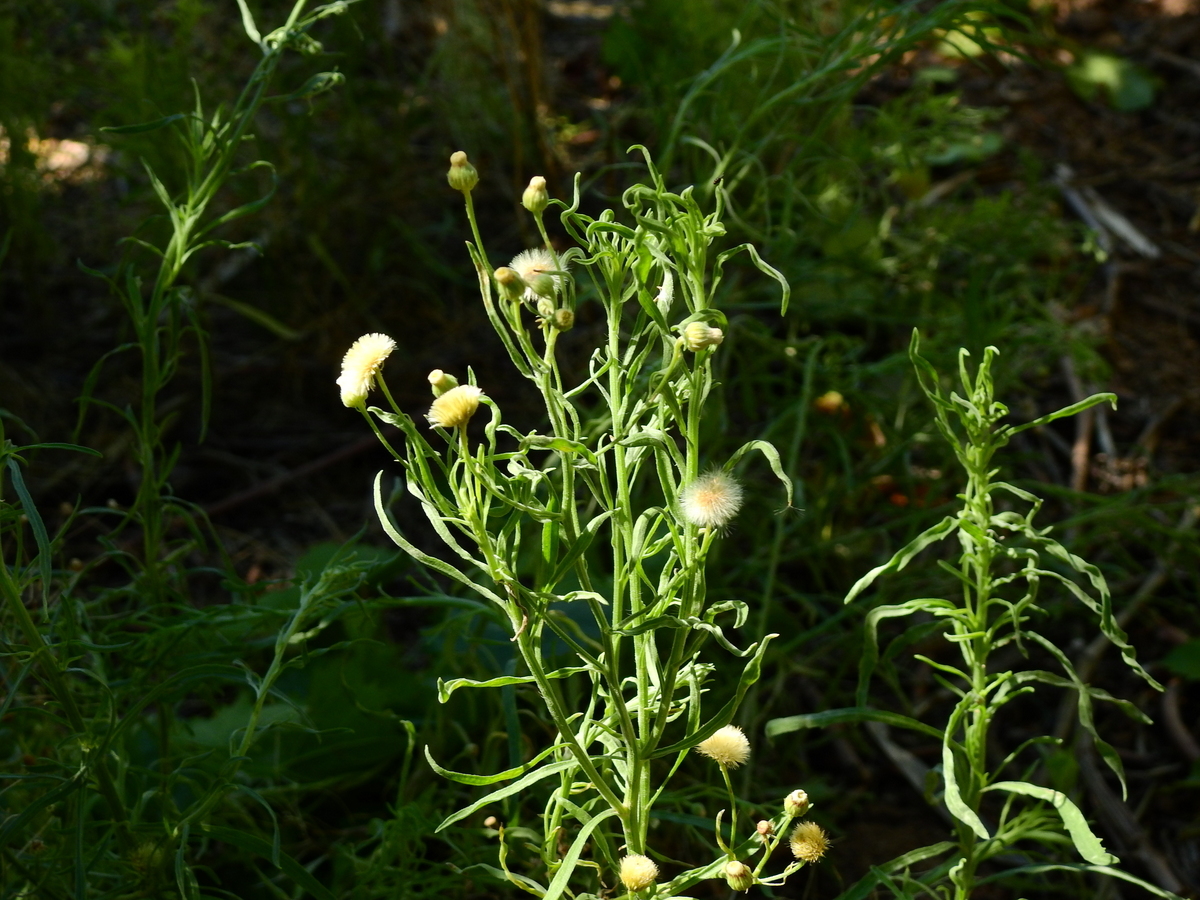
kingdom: Plantae
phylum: Tracheophyta
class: Magnoliopsida
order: Asterales
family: Asteraceae
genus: Erigeron
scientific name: Erigeron bonariensis
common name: Argentine fleabane
